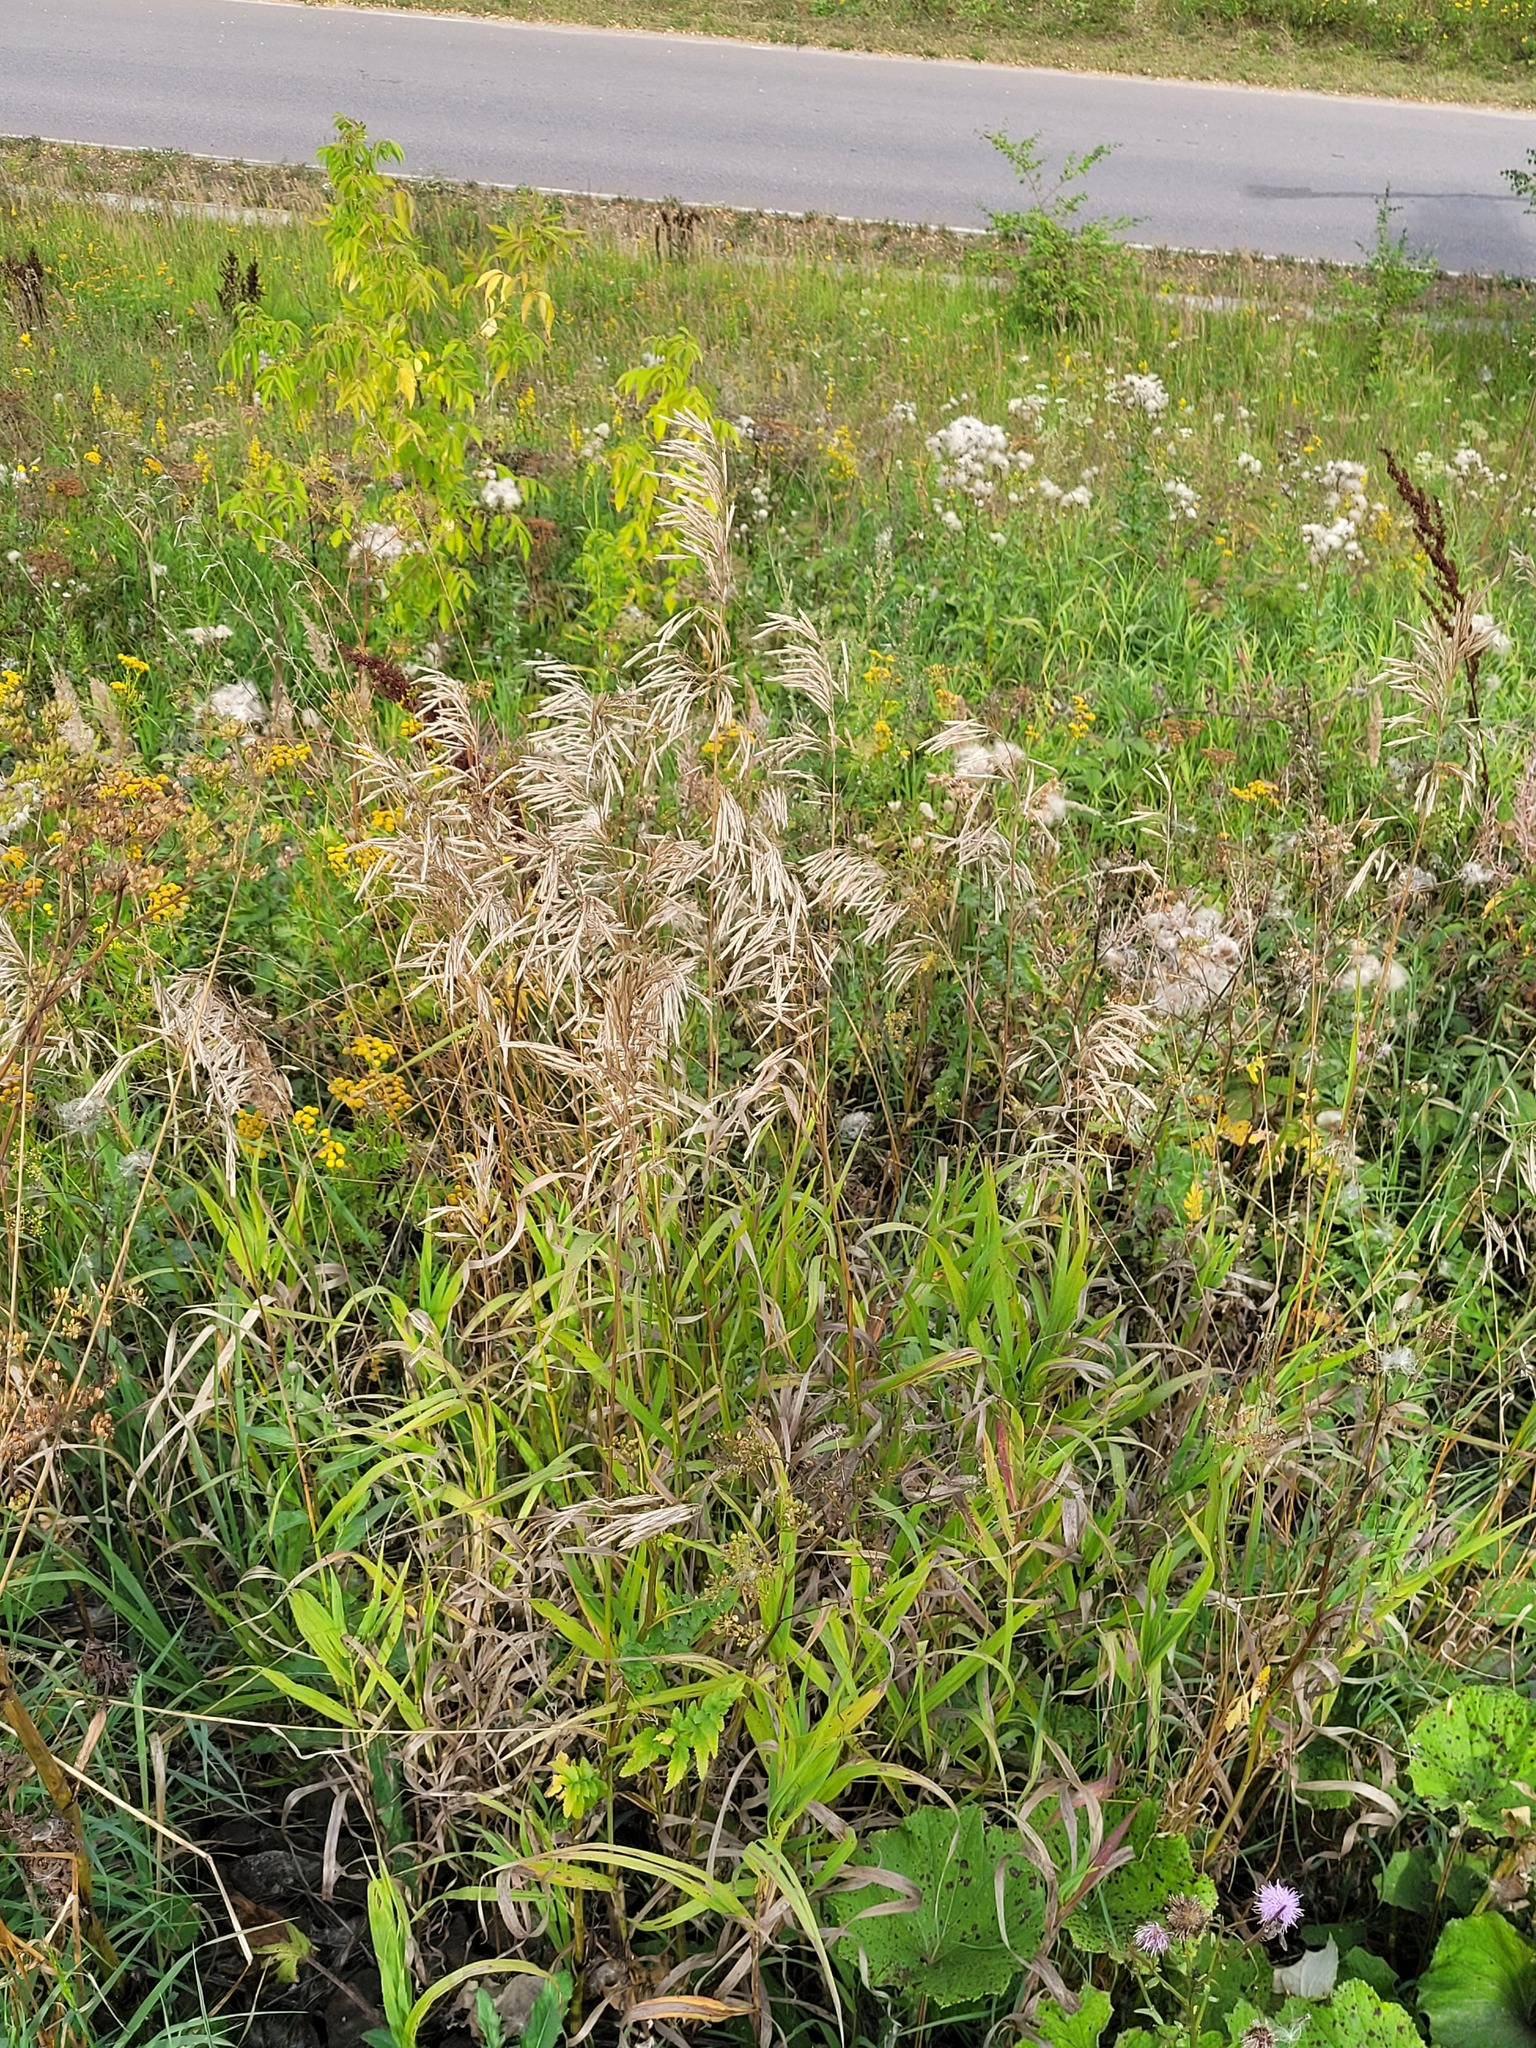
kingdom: Plantae
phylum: Tracheophyta
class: Liliopsida
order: Poales
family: Poaceae
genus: Bromus
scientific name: Bromus inermis
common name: Smooth brome
